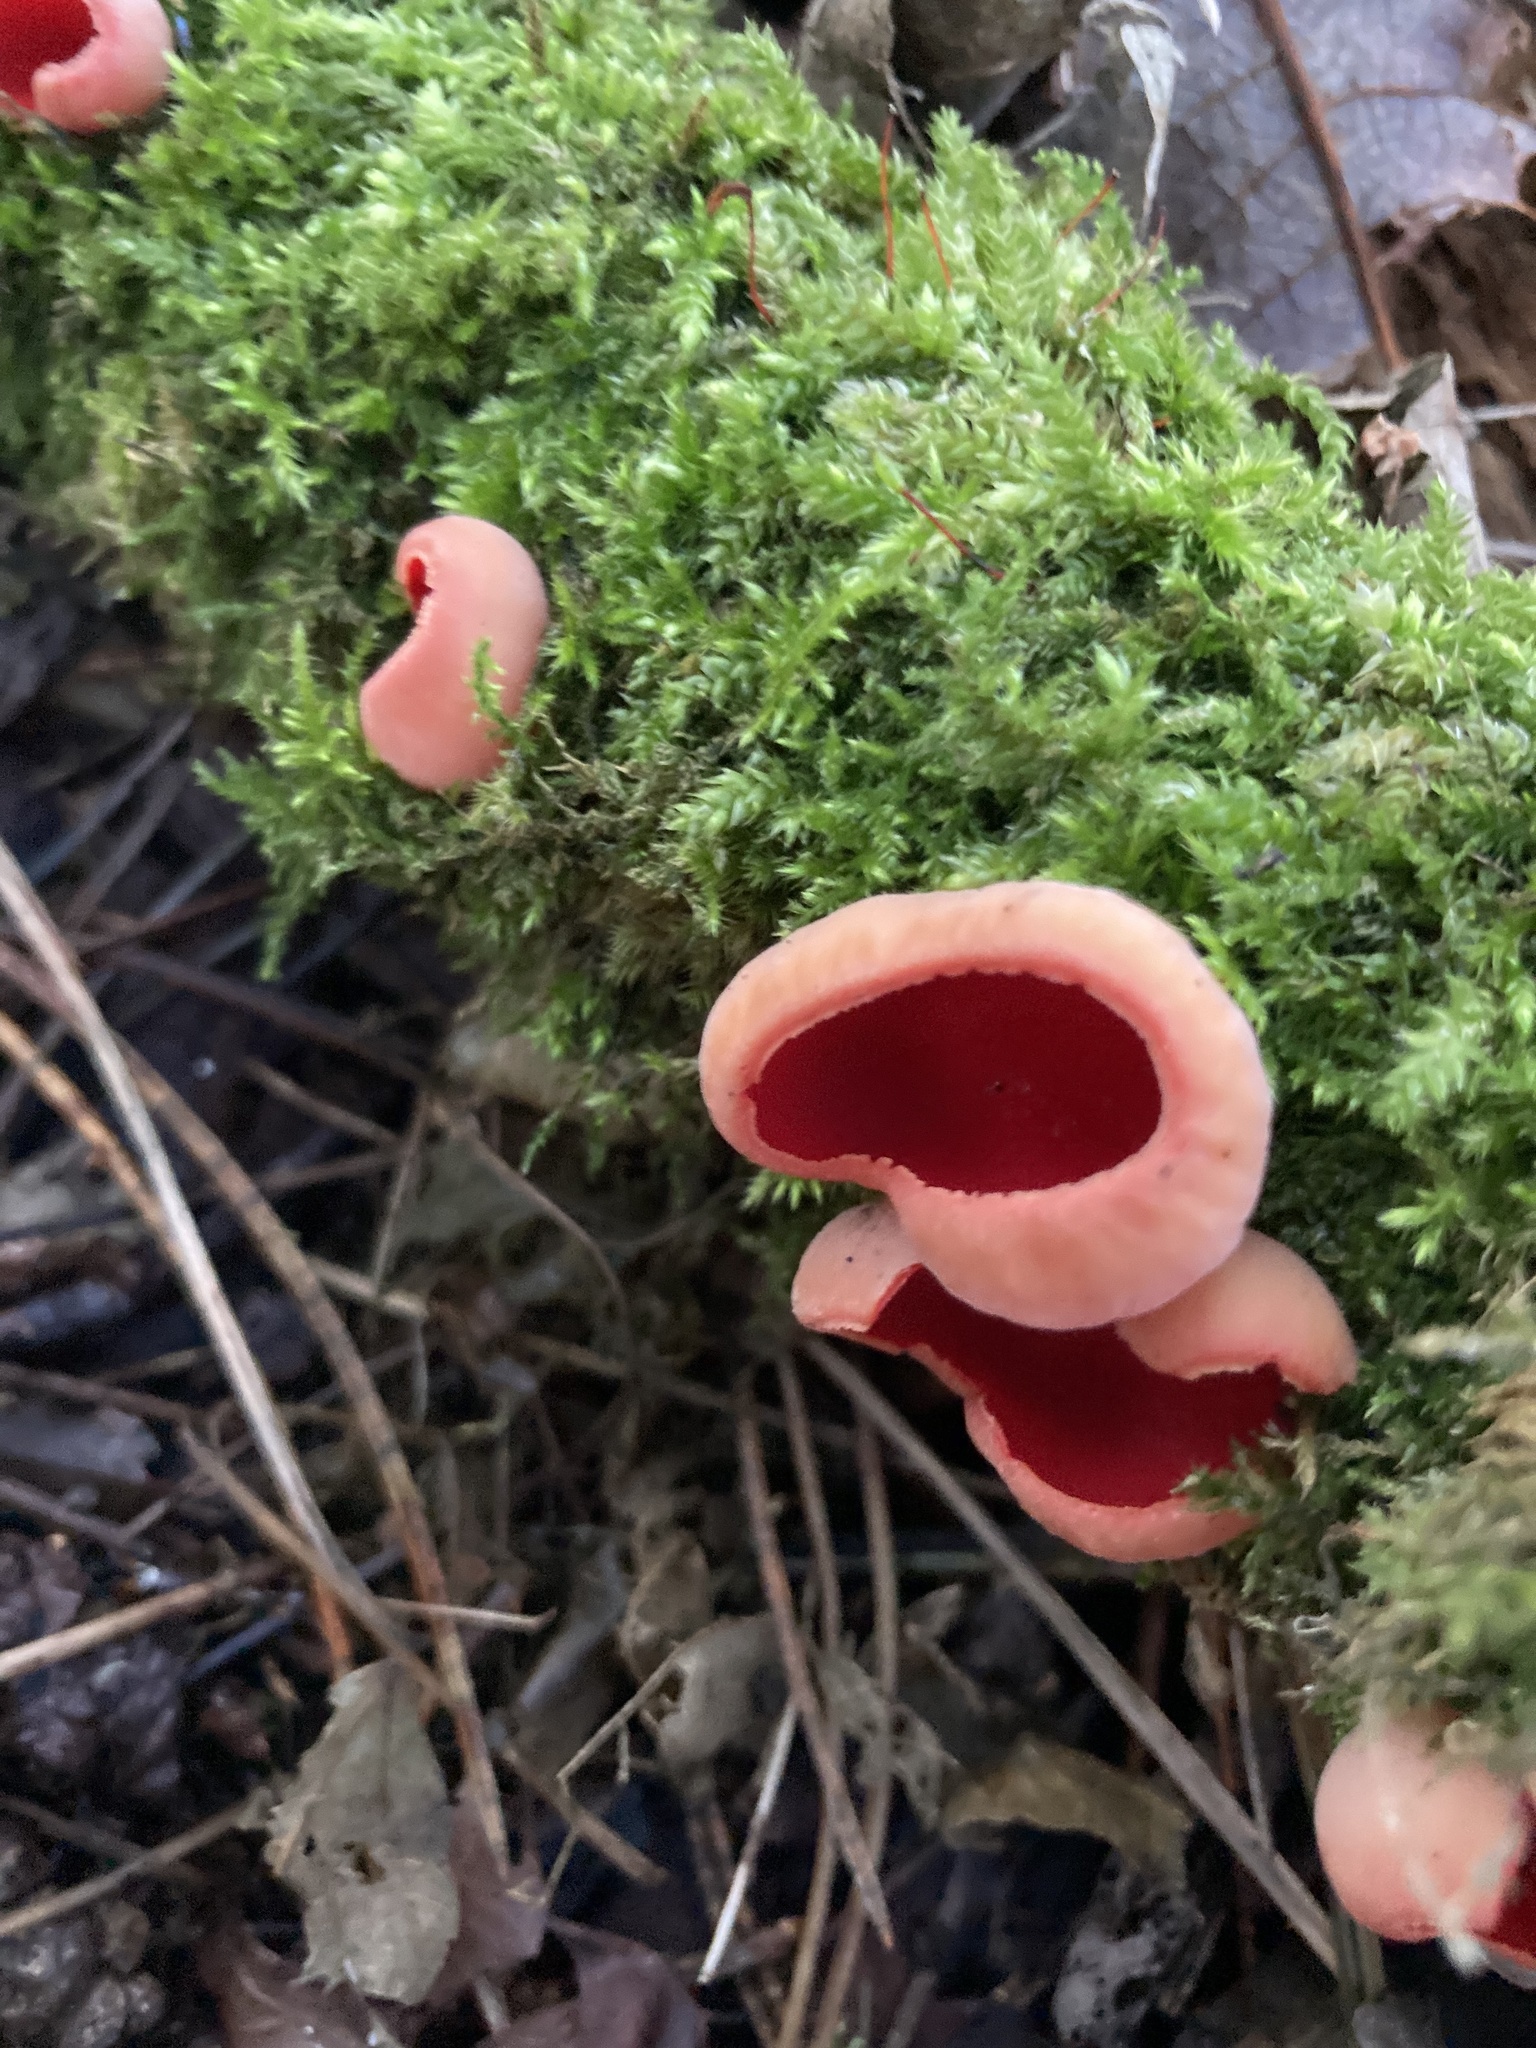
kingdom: Fungi
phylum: Ascomycota
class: Pezizomycetes
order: Pezizales
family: Sarcoscyphaceae
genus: Sarcoscypha
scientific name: Sarcoscypha
